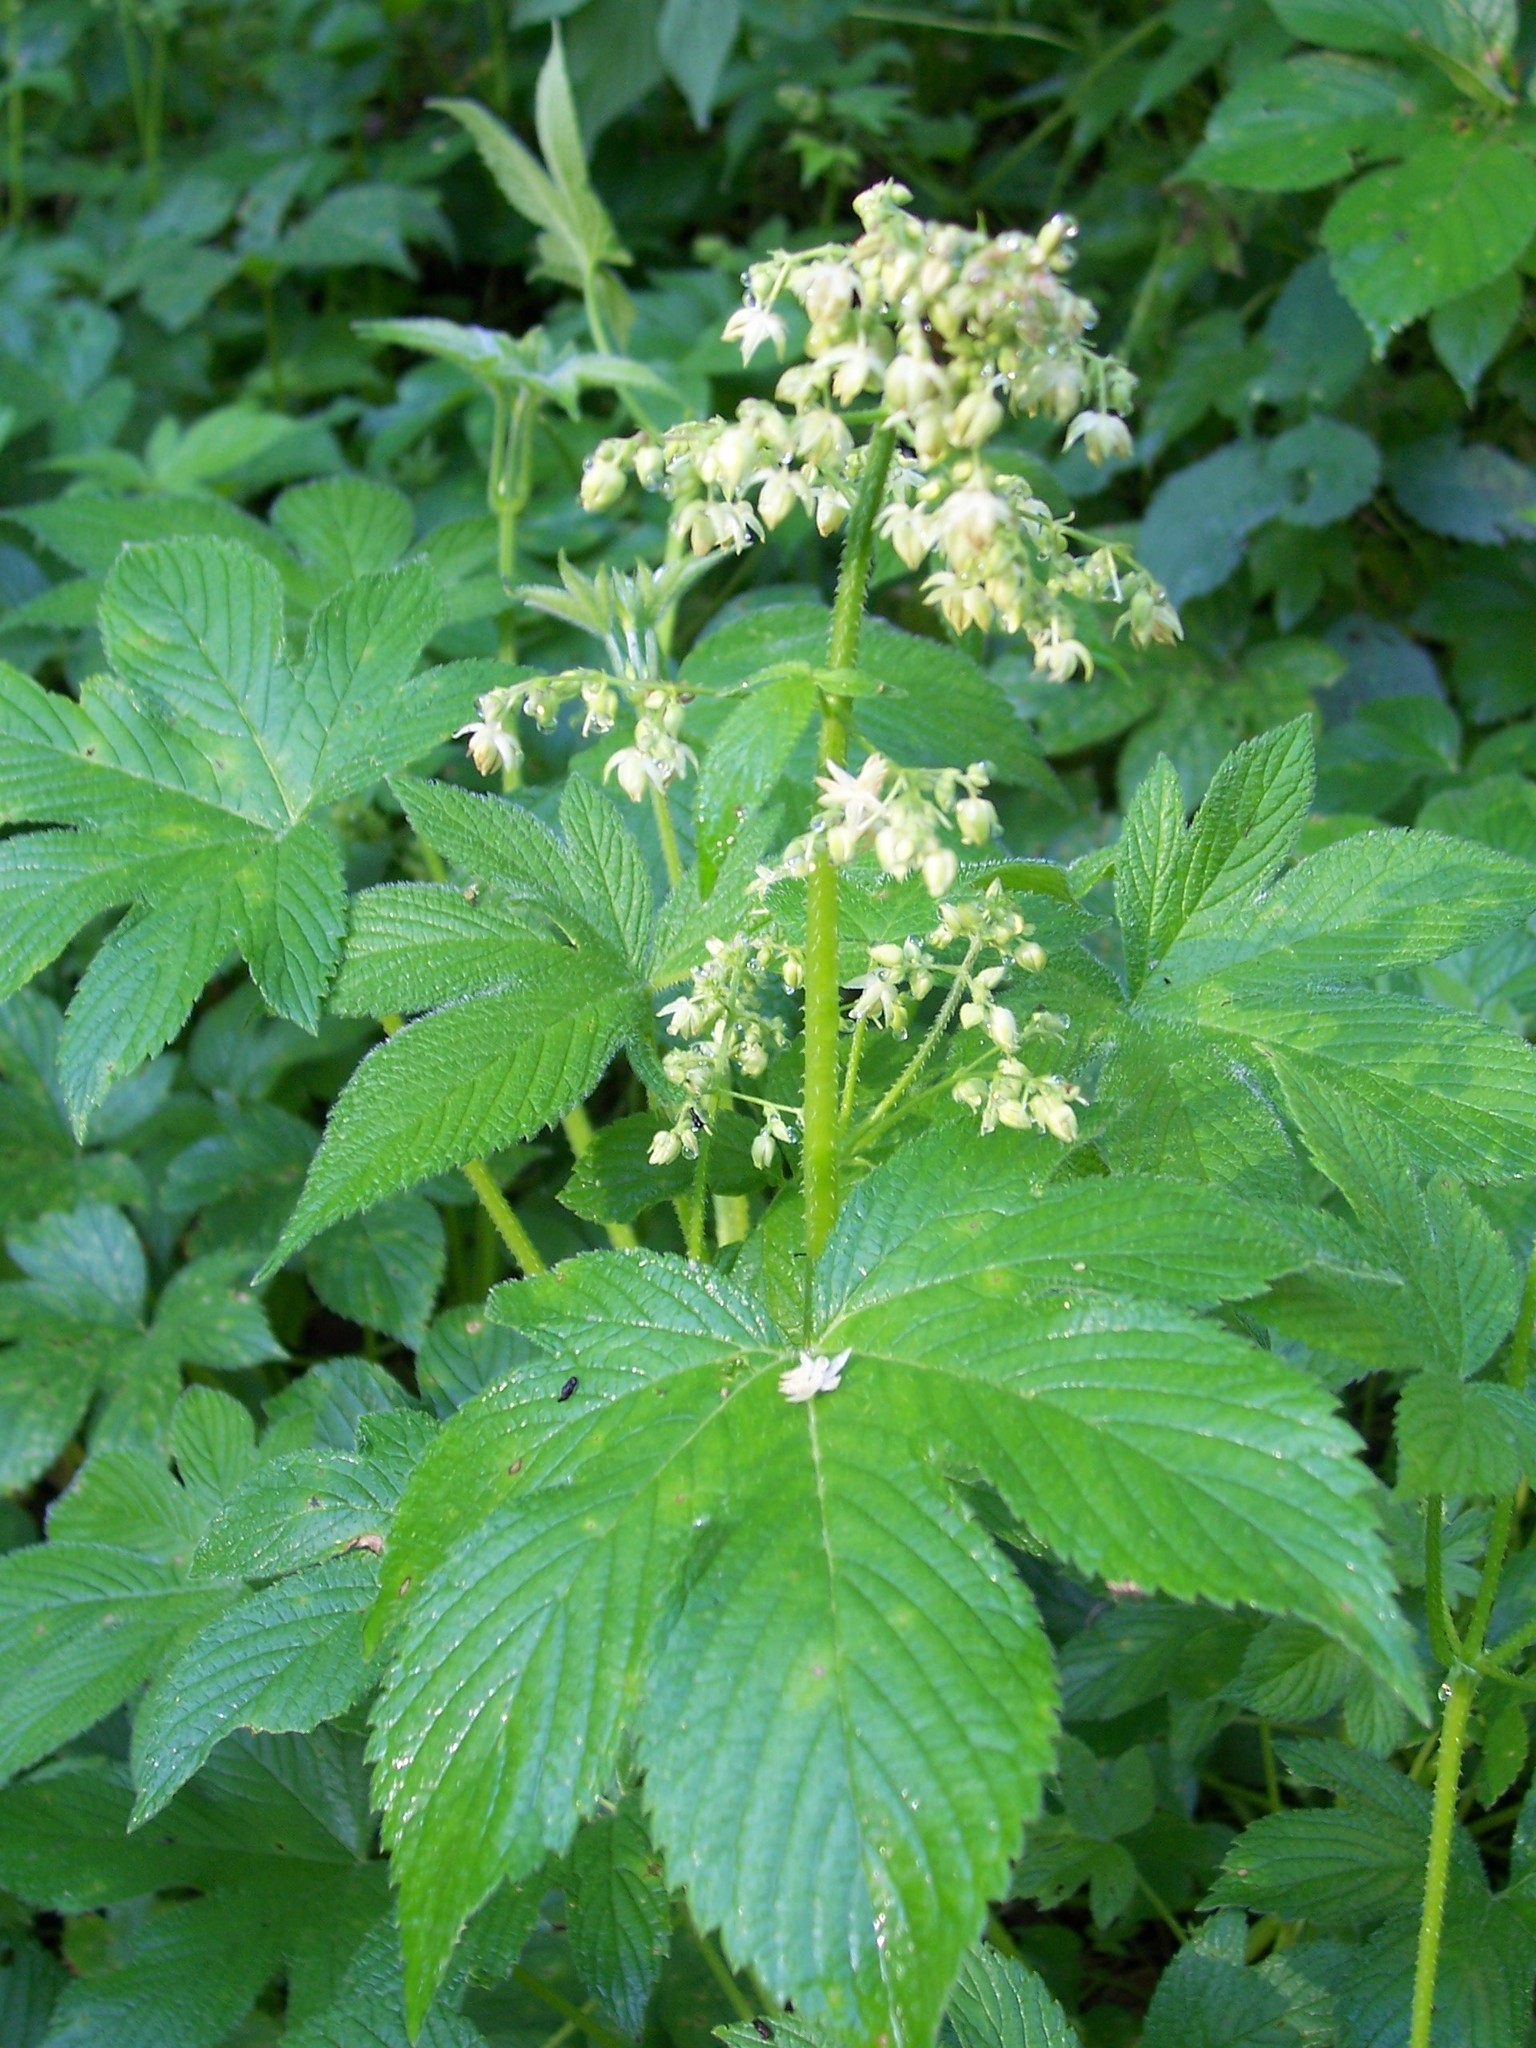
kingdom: Plantae
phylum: Tracheophyta
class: Magnoliopsida
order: Rosales
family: Cannabaceae
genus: Humulus
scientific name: Humulus scandens
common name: Japanese hop
